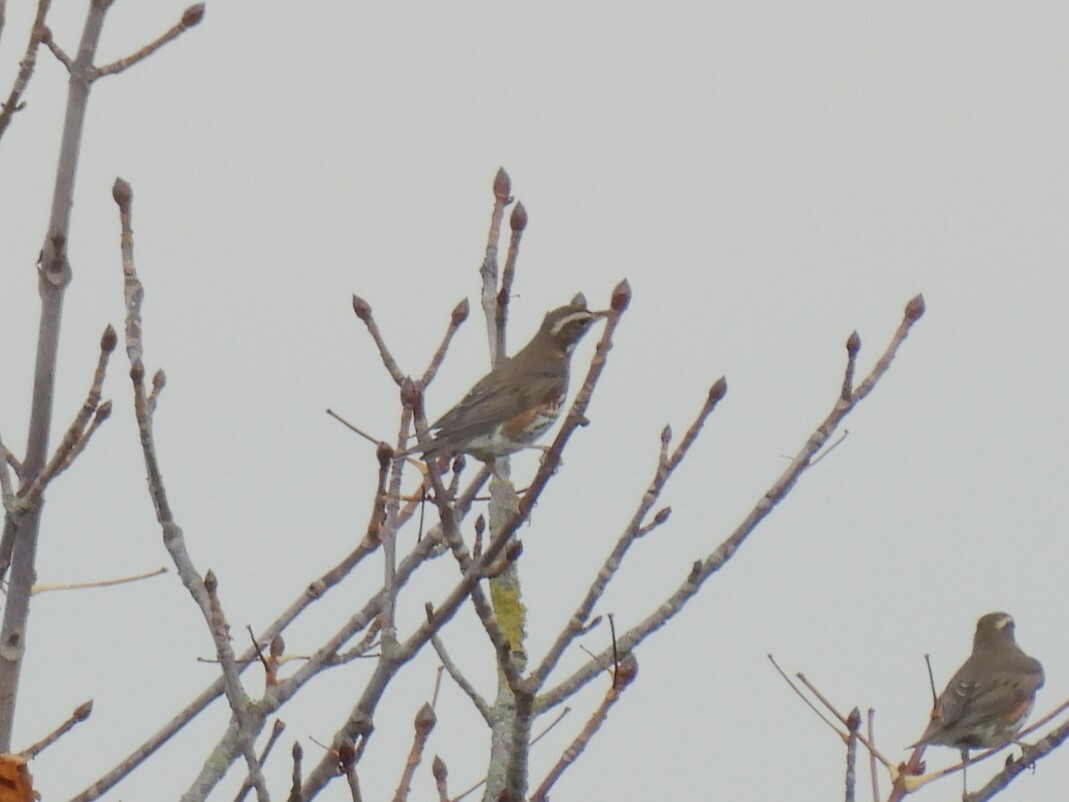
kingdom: Animalia
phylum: Chordata
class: Aves
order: Passeriformes
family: Turdidae
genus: Turdus
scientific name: Turdus iliacus
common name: Redwing
